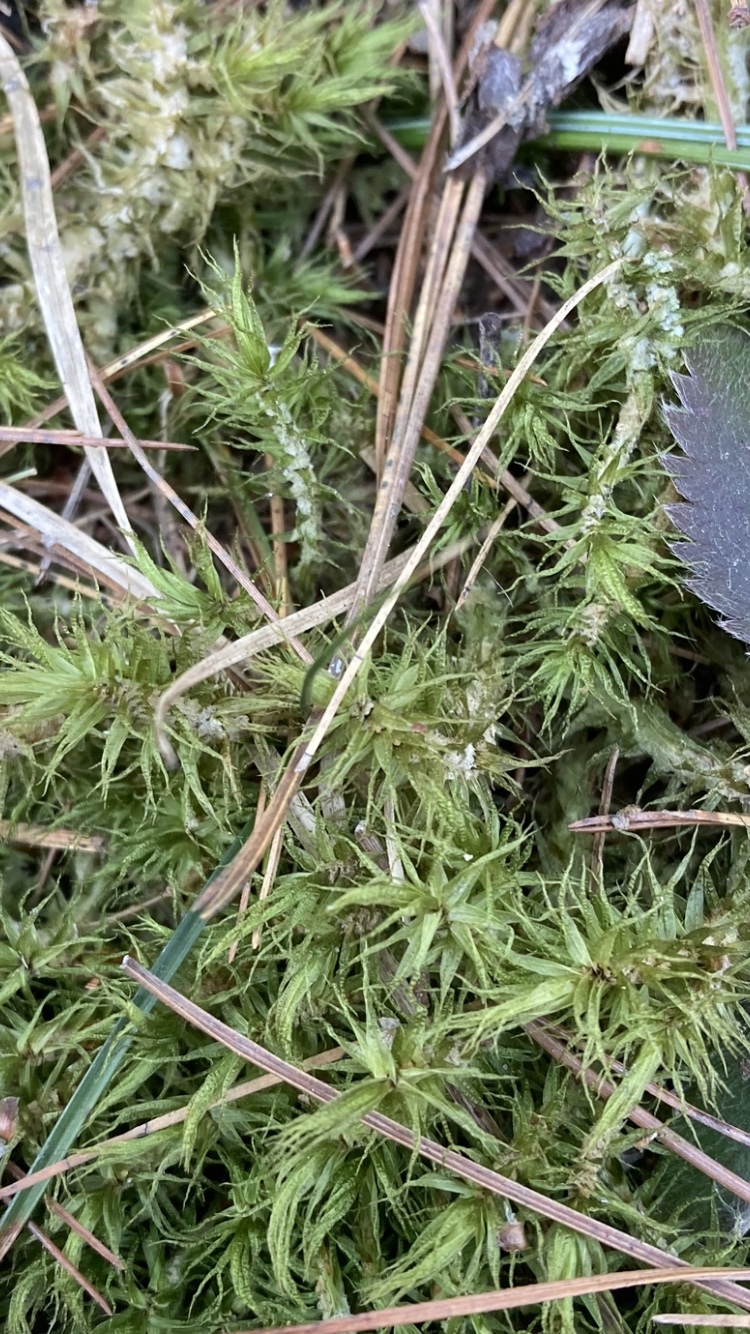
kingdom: Plantae
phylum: Bryophyta
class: Bryopsida
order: Dicranales
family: Dicranaceae
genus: Dicranum
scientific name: Dicranum polysetum
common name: Rugose fork-moss
